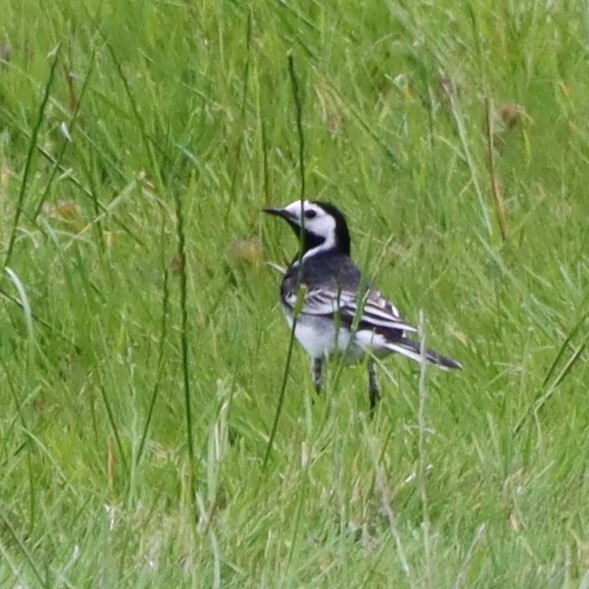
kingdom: Animalia
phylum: Chordata
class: Aves
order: Passeriformes
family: Motacillidae
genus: Motacilla
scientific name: Motacilla alba
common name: White wagtail
